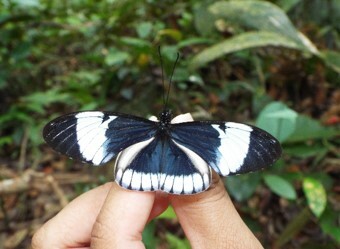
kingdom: Animalia
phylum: Arthropoda
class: Insecta
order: Lepidoptera
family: Nymphalidae
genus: Heliconius
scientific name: Heliconius cydno
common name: Cydno longwing
